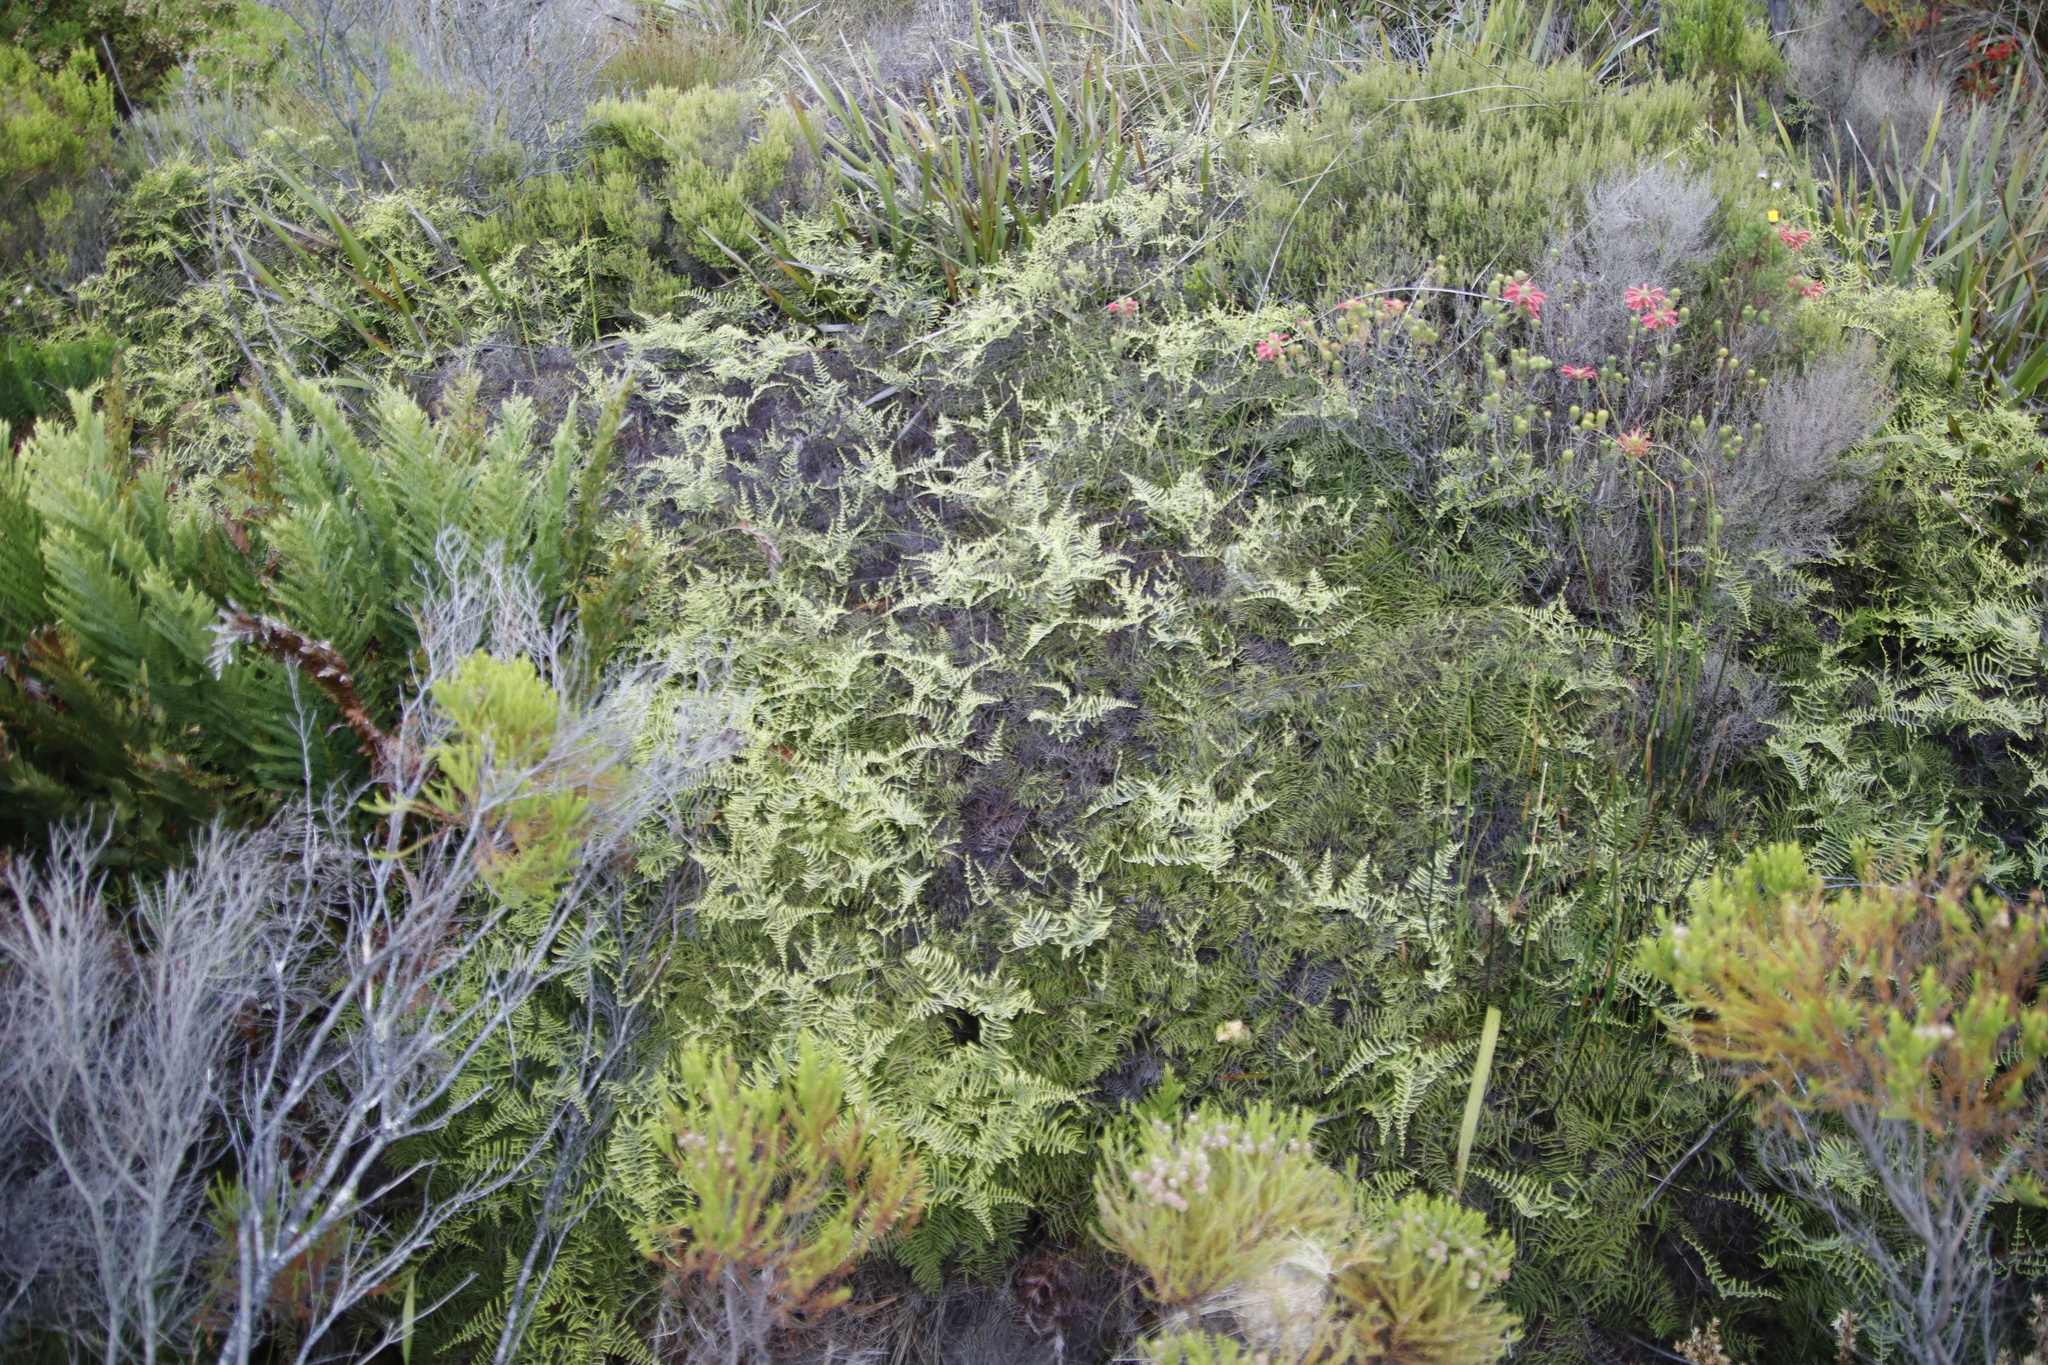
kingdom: Plantae
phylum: Tracheophyta
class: Polypodiopsida
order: Gleicheniales
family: Gleicheniaceae
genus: Gleichenia
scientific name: Gleichenia polypodioides
